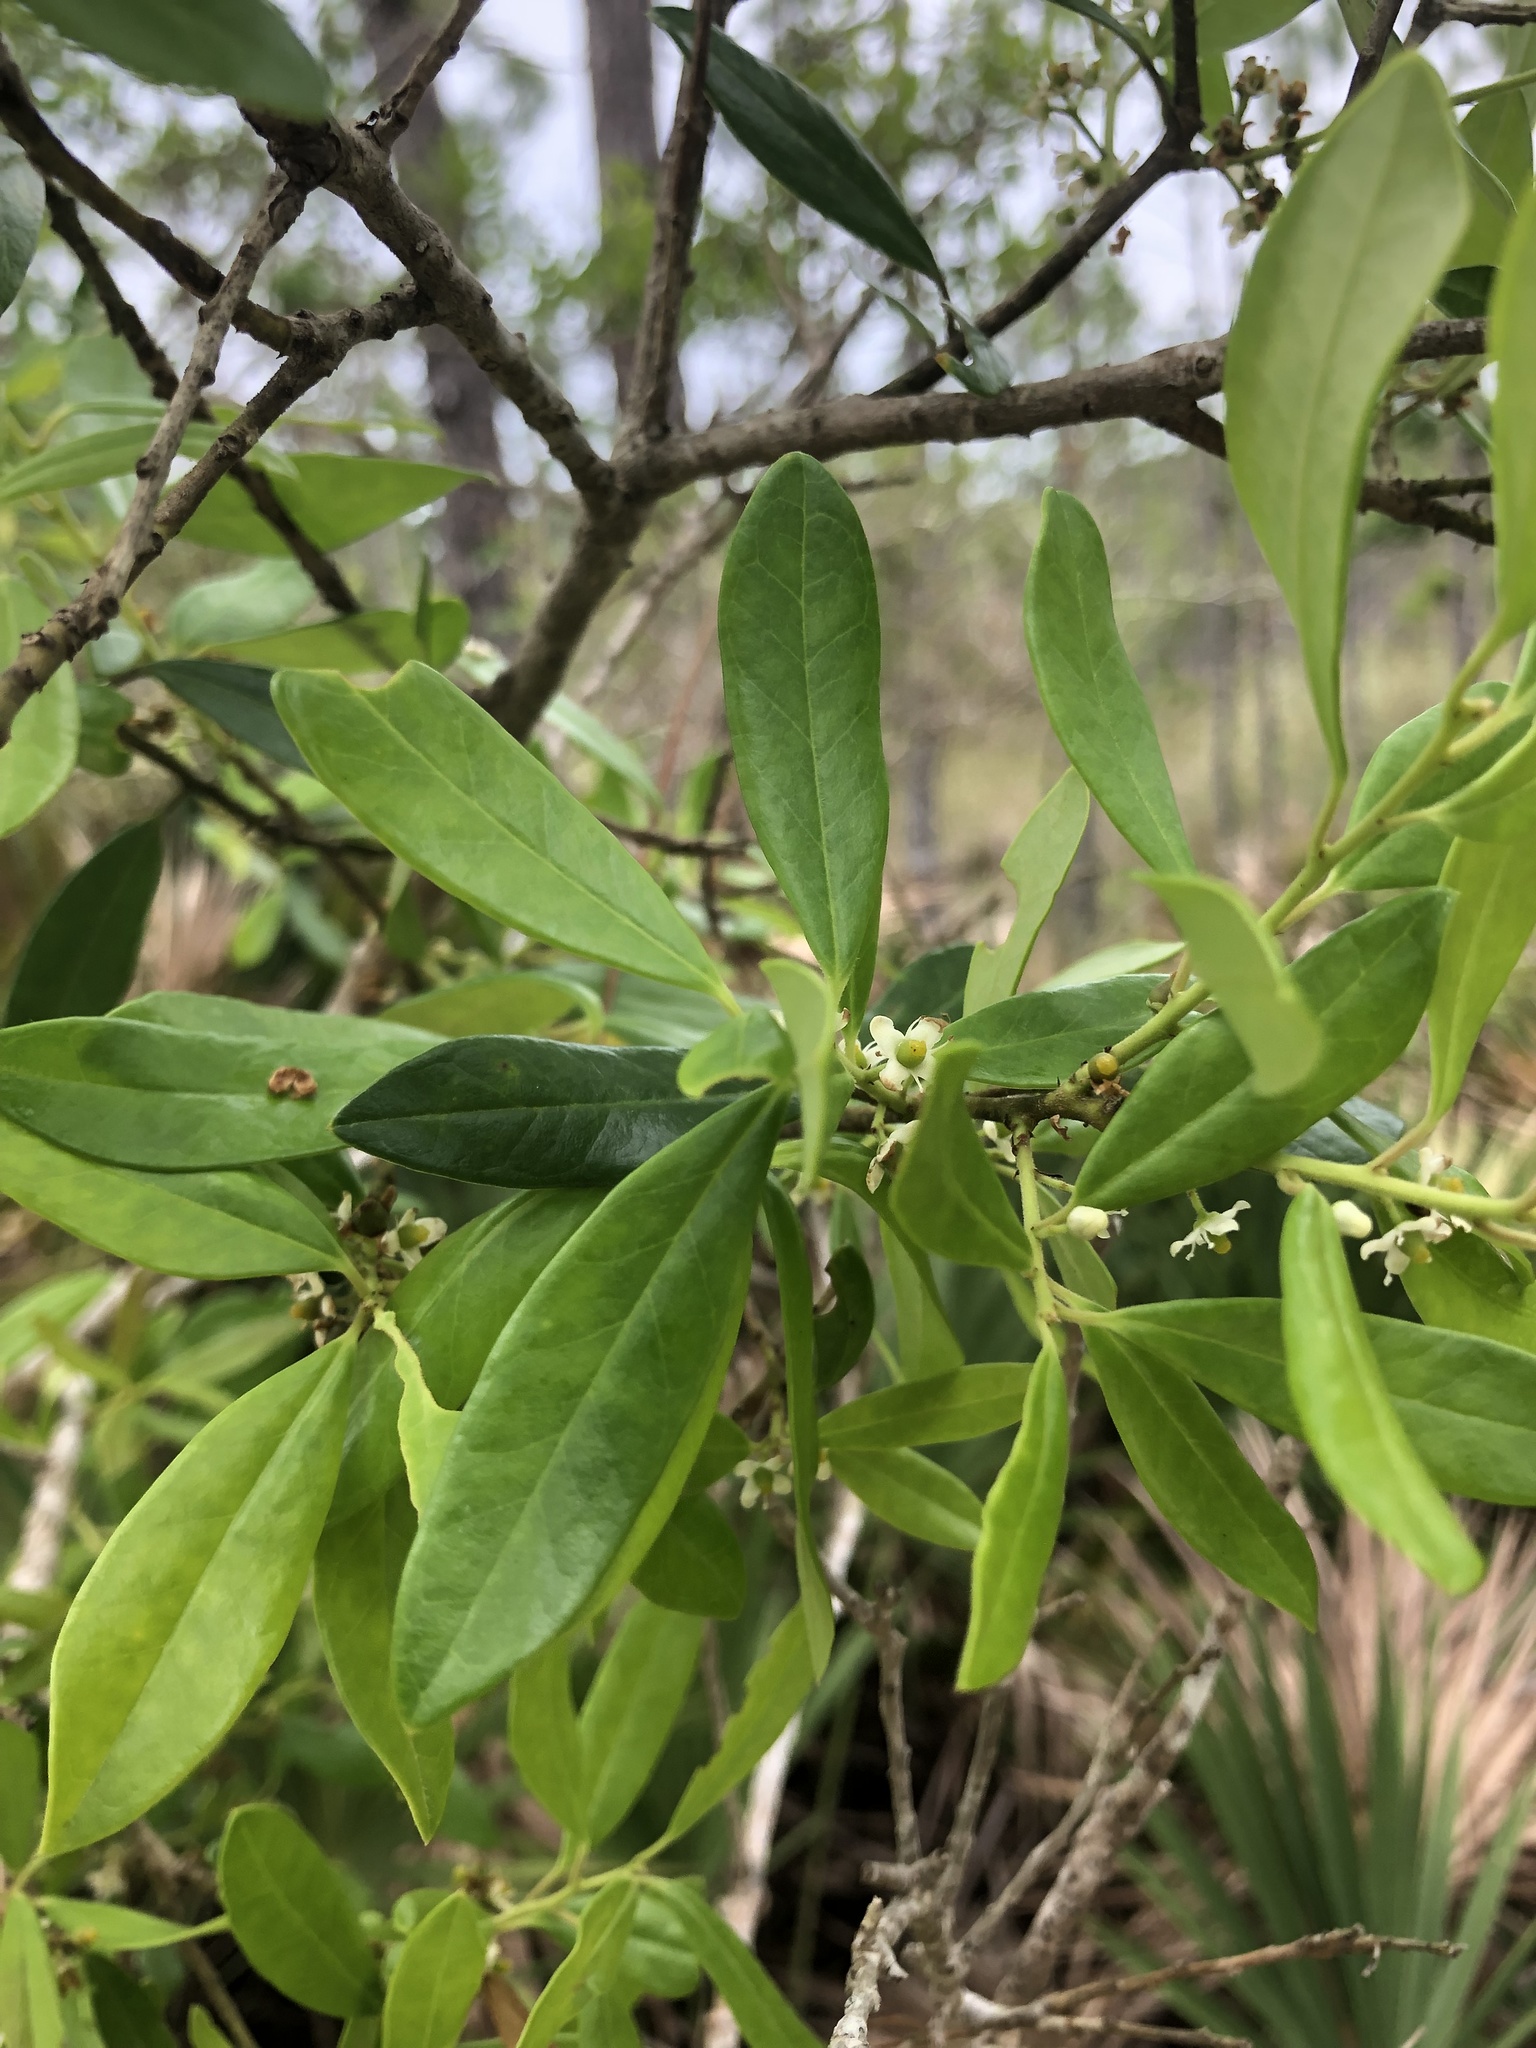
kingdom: Plantae
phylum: Tracheophyta
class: Magnoliopsida
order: Aquifoliales
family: Aquifoliaceae
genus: Ilex
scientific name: Ilex cassine
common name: Dahoon
